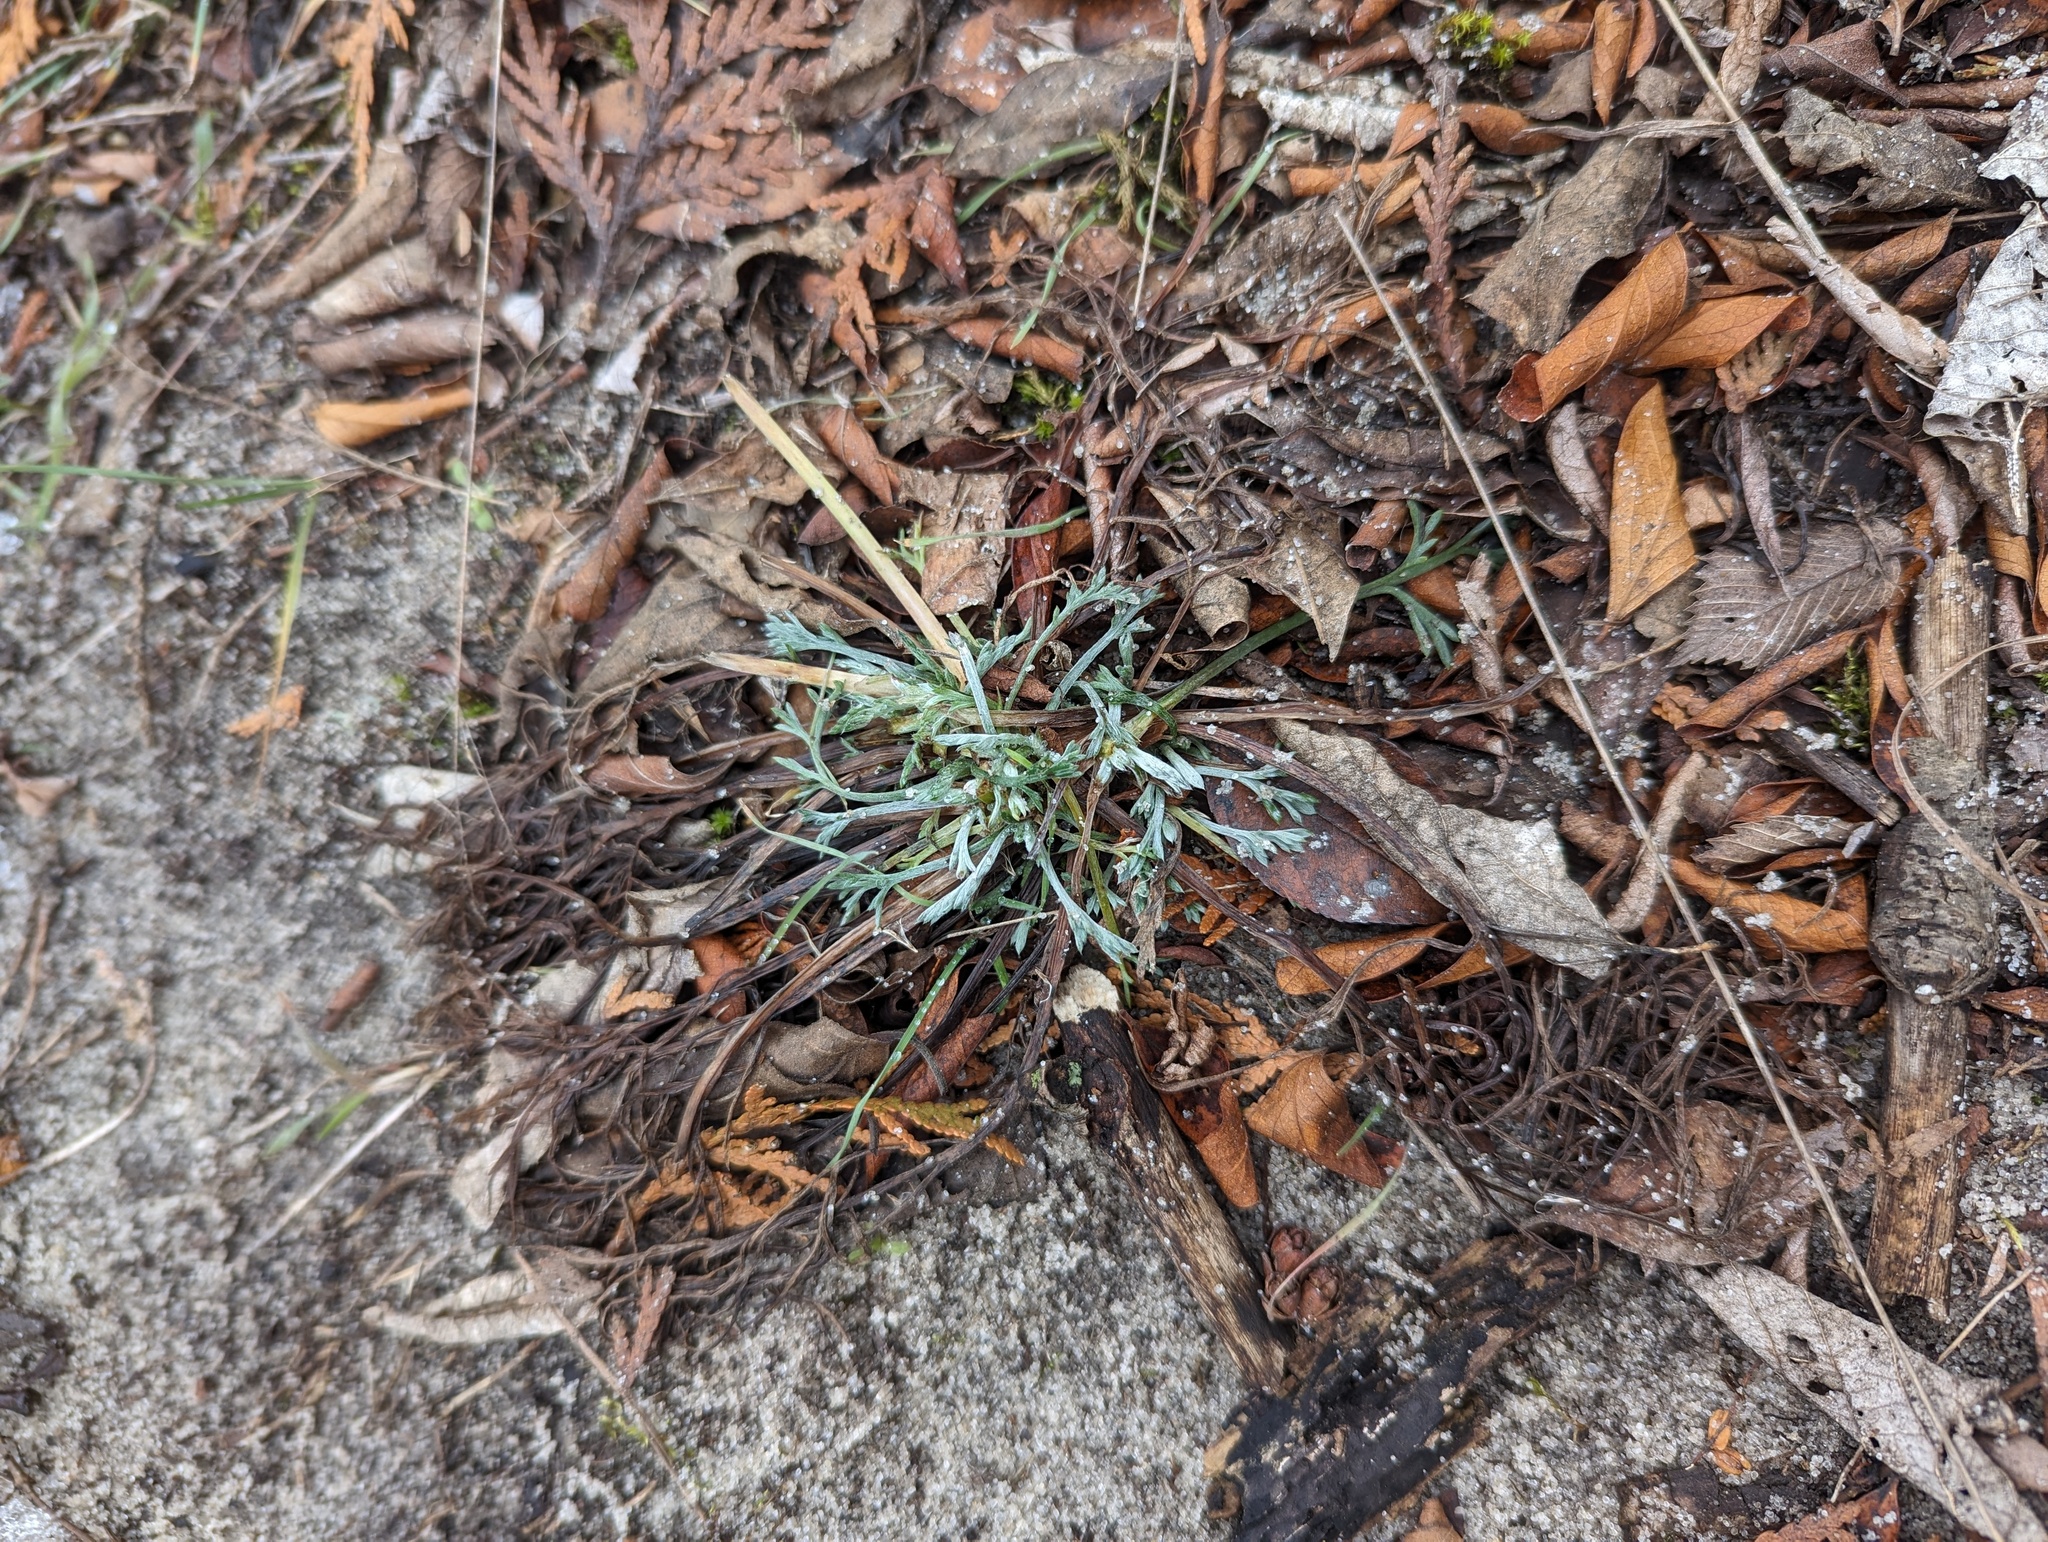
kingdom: Plantae
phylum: Tracheophyta
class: Magnoliopsida
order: Asterales
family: Asteraceae
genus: Artemisia
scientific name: Artemisia campestris
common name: Field wormwood
